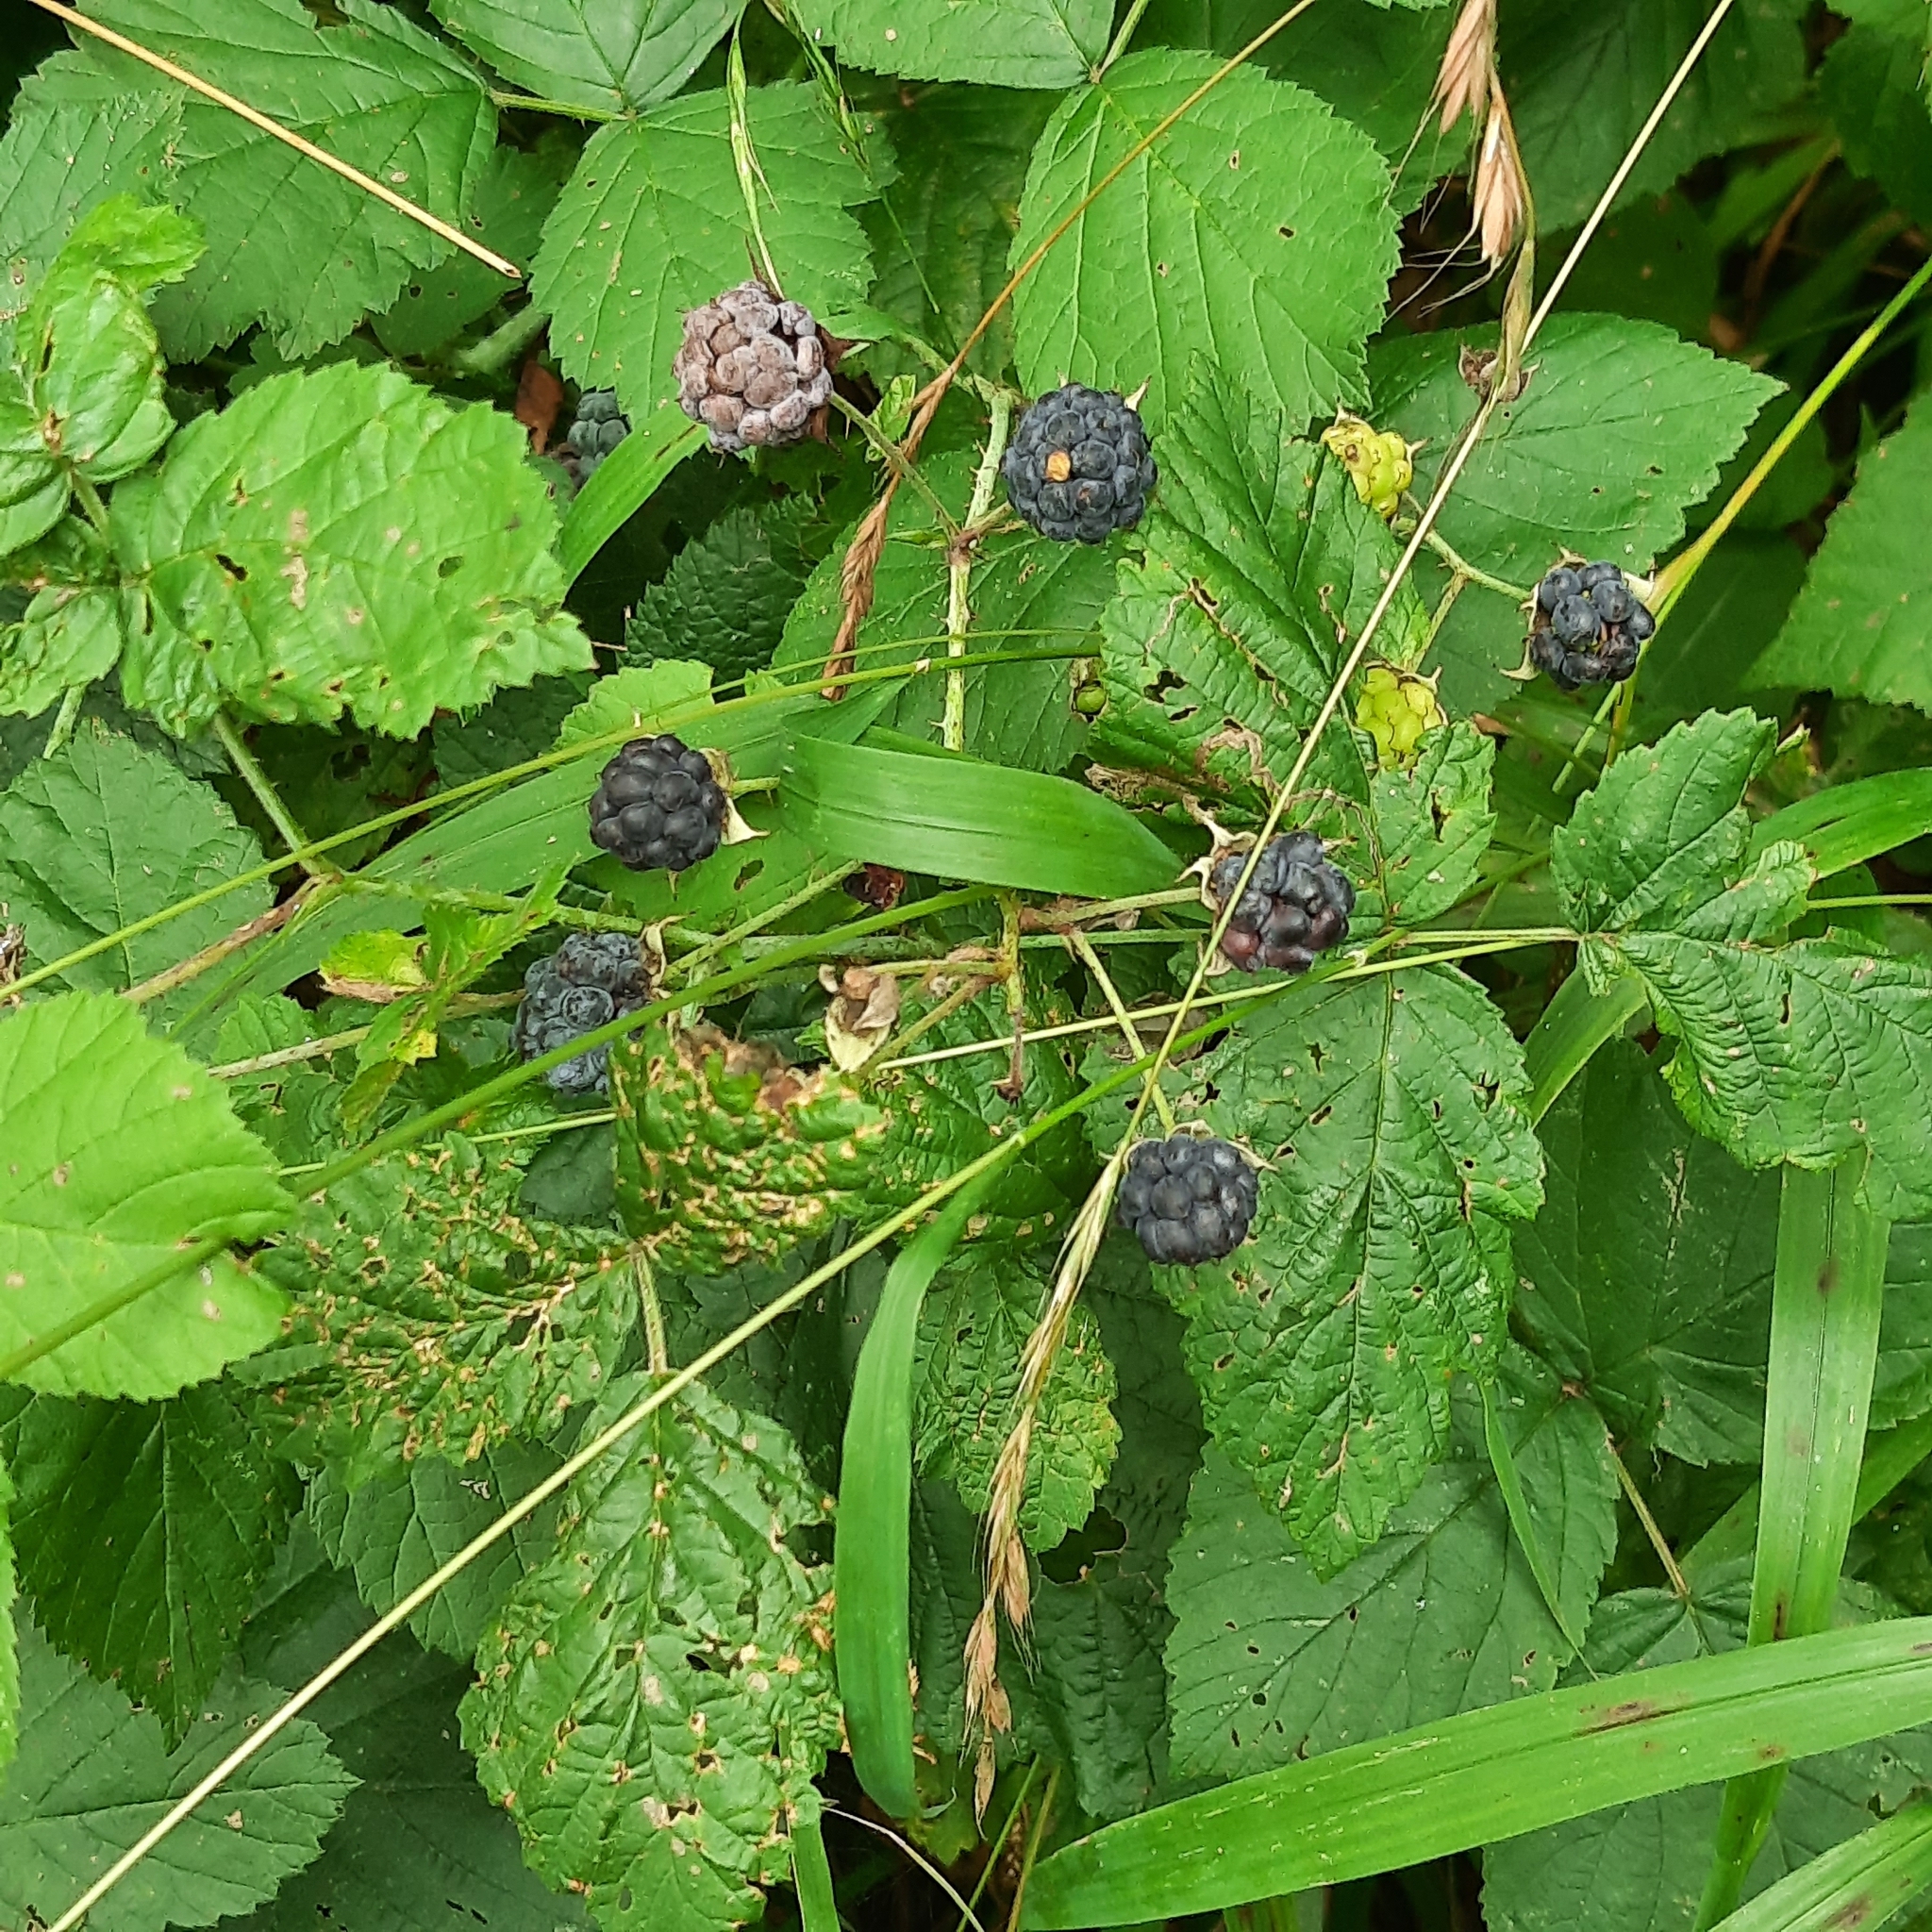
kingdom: Plantae
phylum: Tracheophyta
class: Magnoliopsida
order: Rosales
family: Rosaceae
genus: Rubus
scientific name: Rubus caesius
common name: Dewberry
